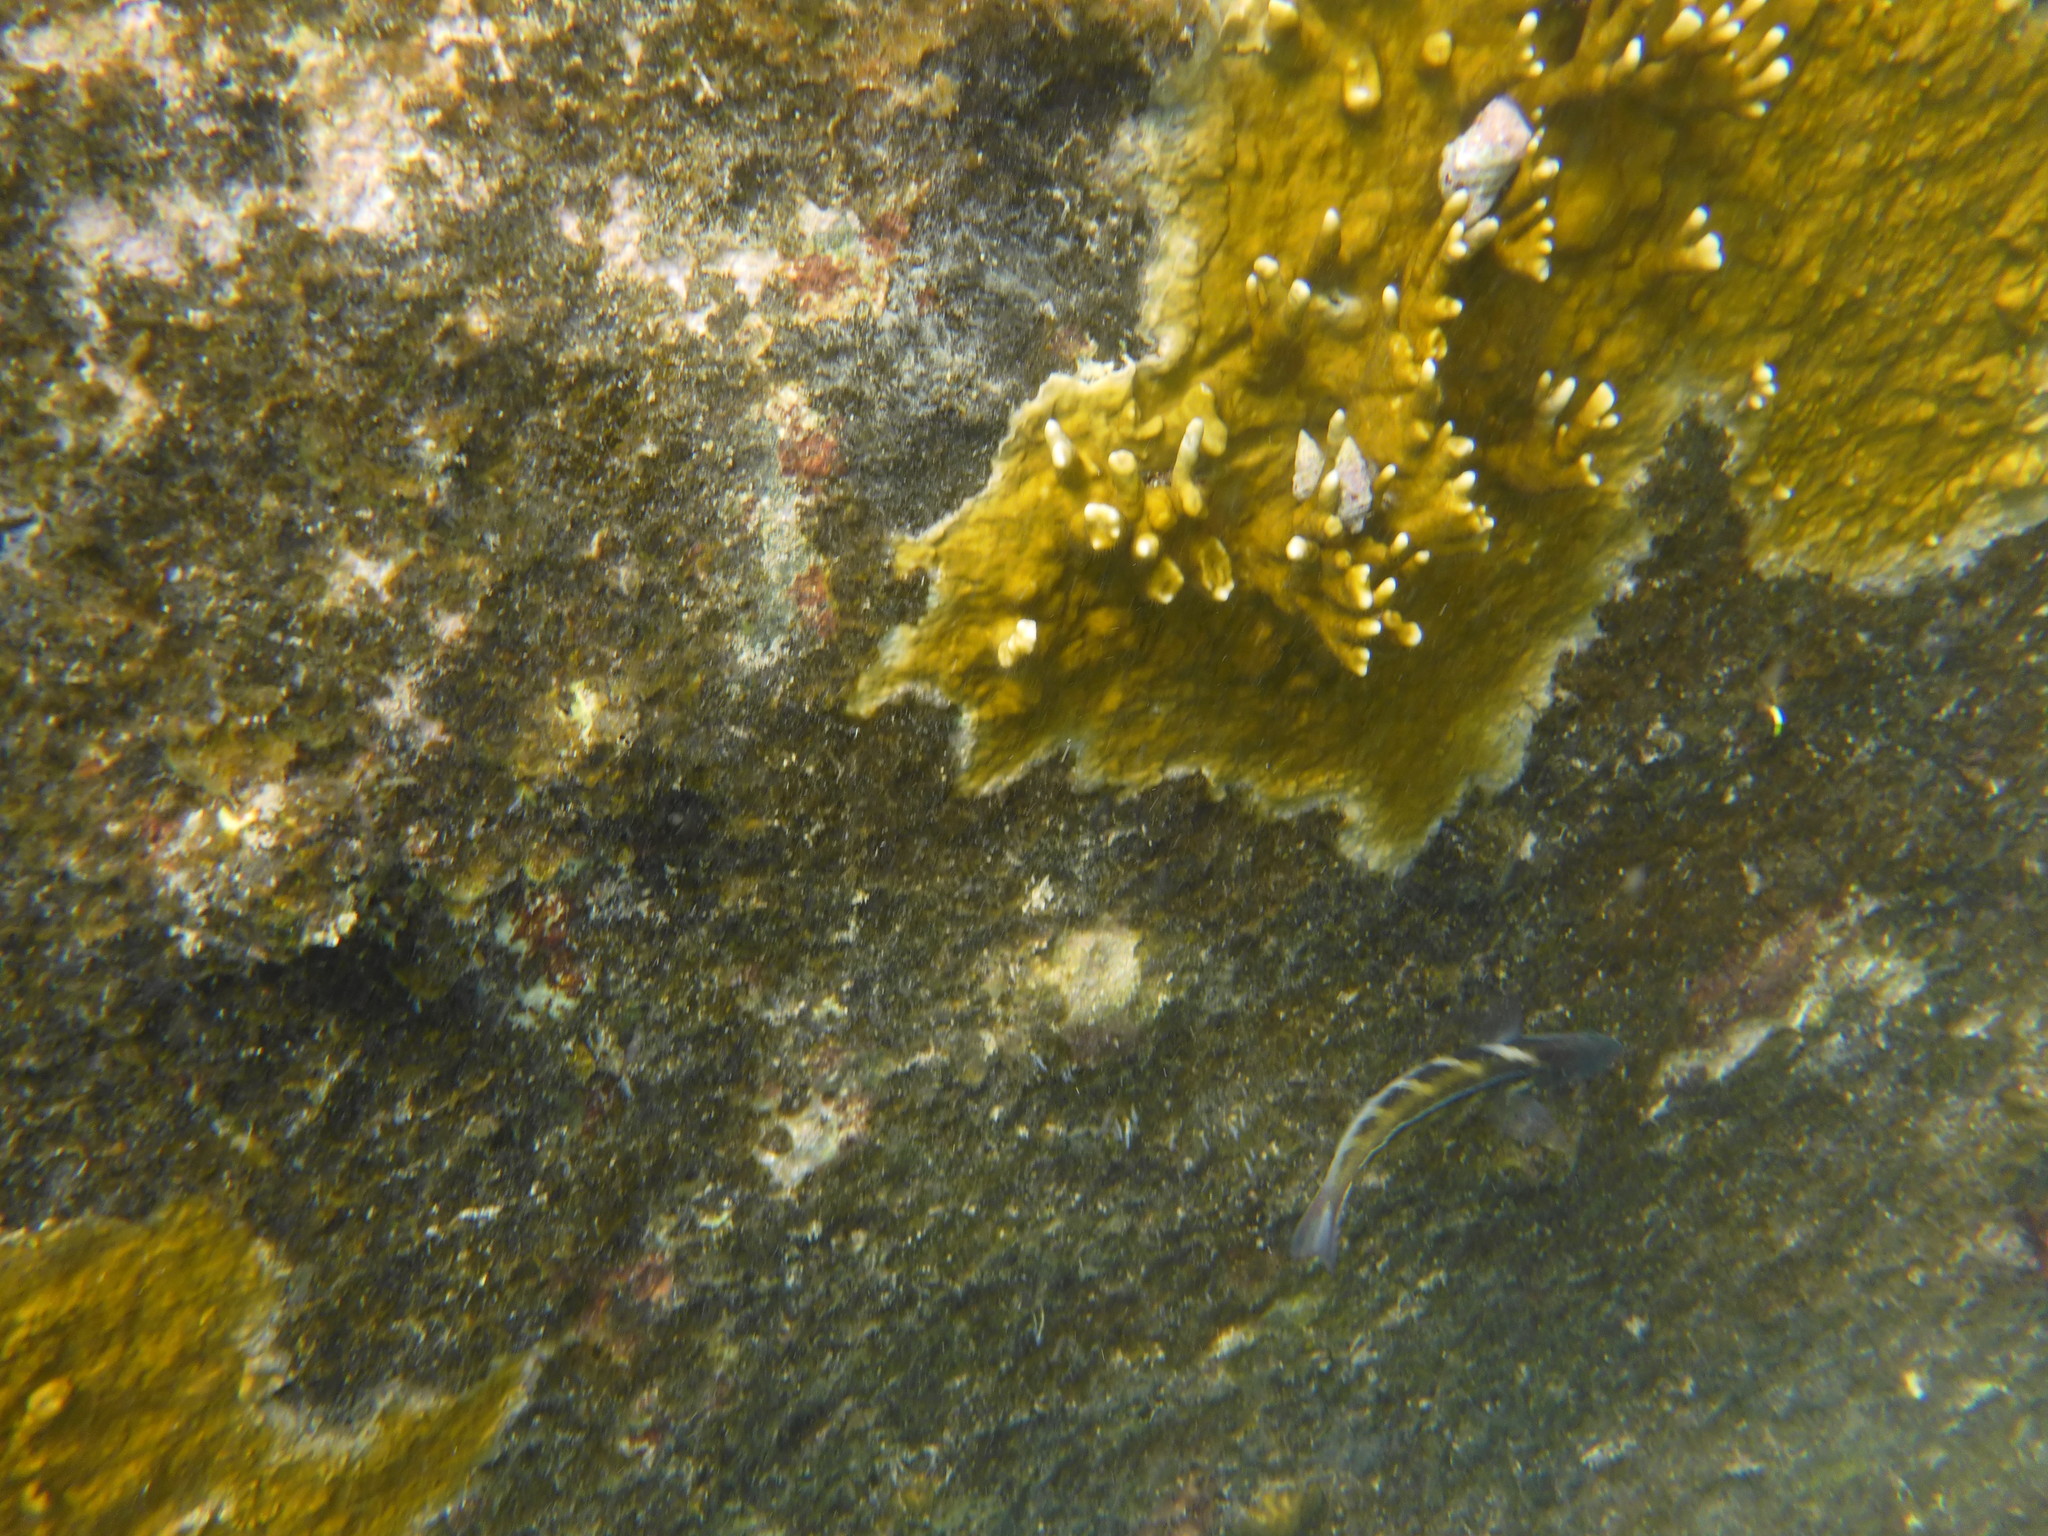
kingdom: Animalia
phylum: Chordata
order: Perciformes
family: Labridae
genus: Thalassoma
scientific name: Thalassoma bifasciatum
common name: Bluehead wrasse
